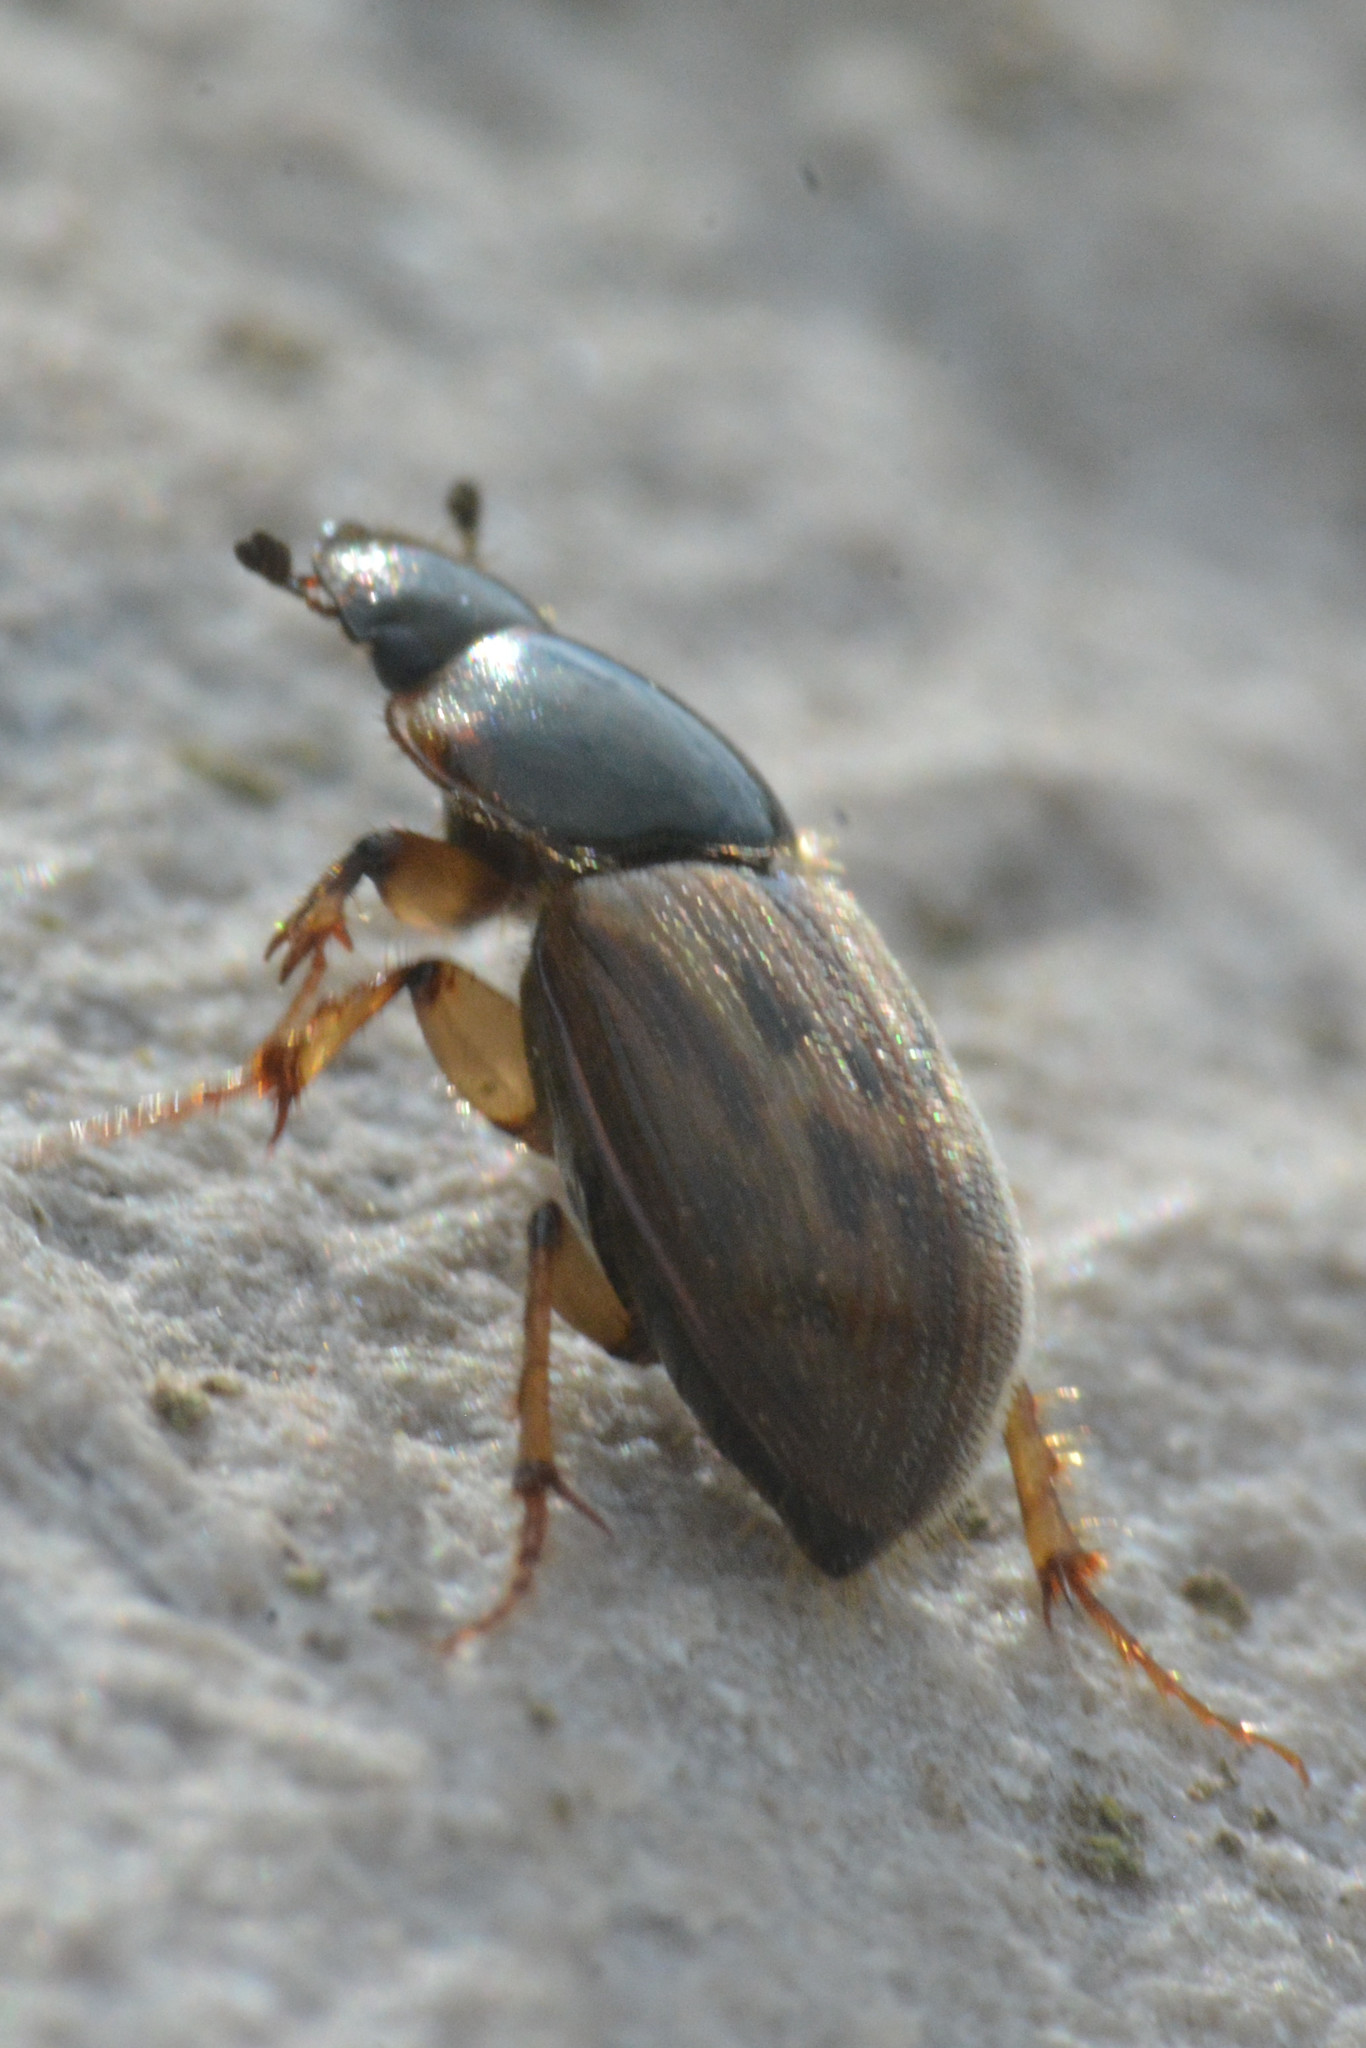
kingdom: Animalia
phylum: Arthropoda
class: Insecta
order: Coleoptera
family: Scarabaeidae
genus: Nimbus
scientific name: Nimbus contaminatus
